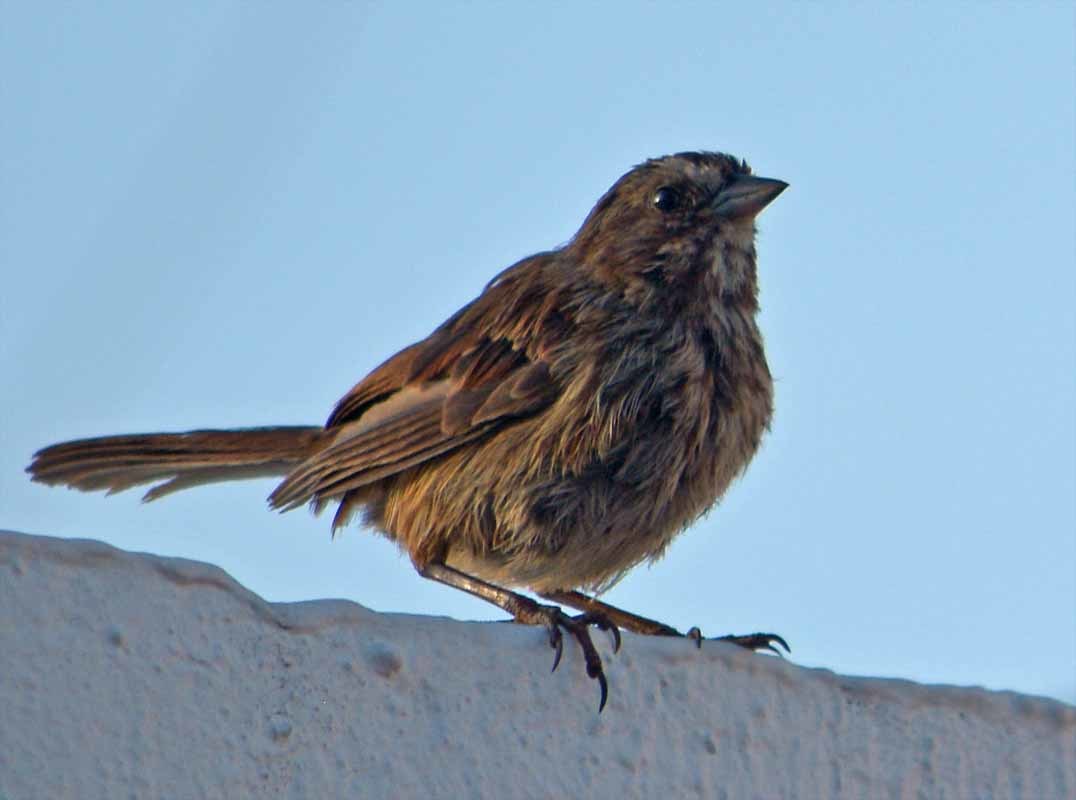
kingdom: Animalia
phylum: Chordata
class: Aves
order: Passeriformes
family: Passerellidae
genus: Melospiza
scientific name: Melospiza melodia
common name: Song sparrow
